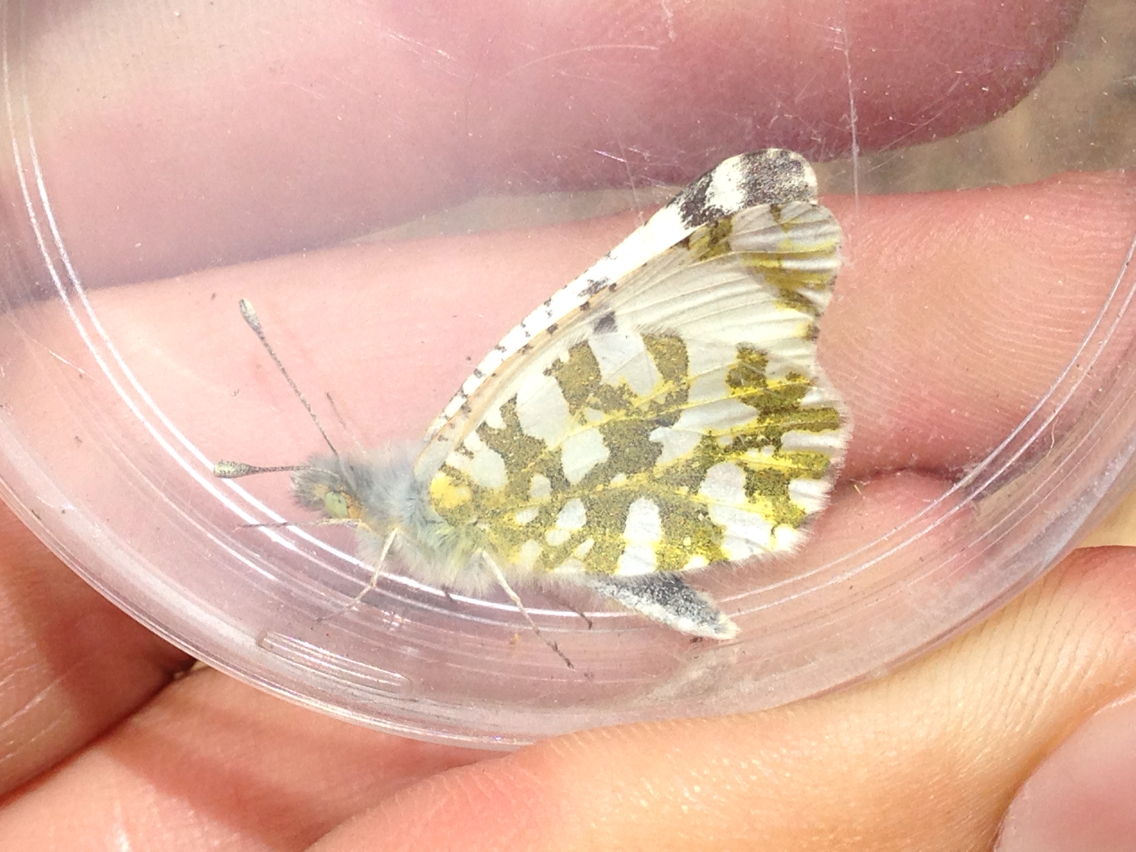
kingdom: Animalia
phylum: Arthropoda
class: Insecta
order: Lepidoptera
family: Pieridae
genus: Euchloe
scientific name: Euchloe ausonides
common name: Creamy marblewing
